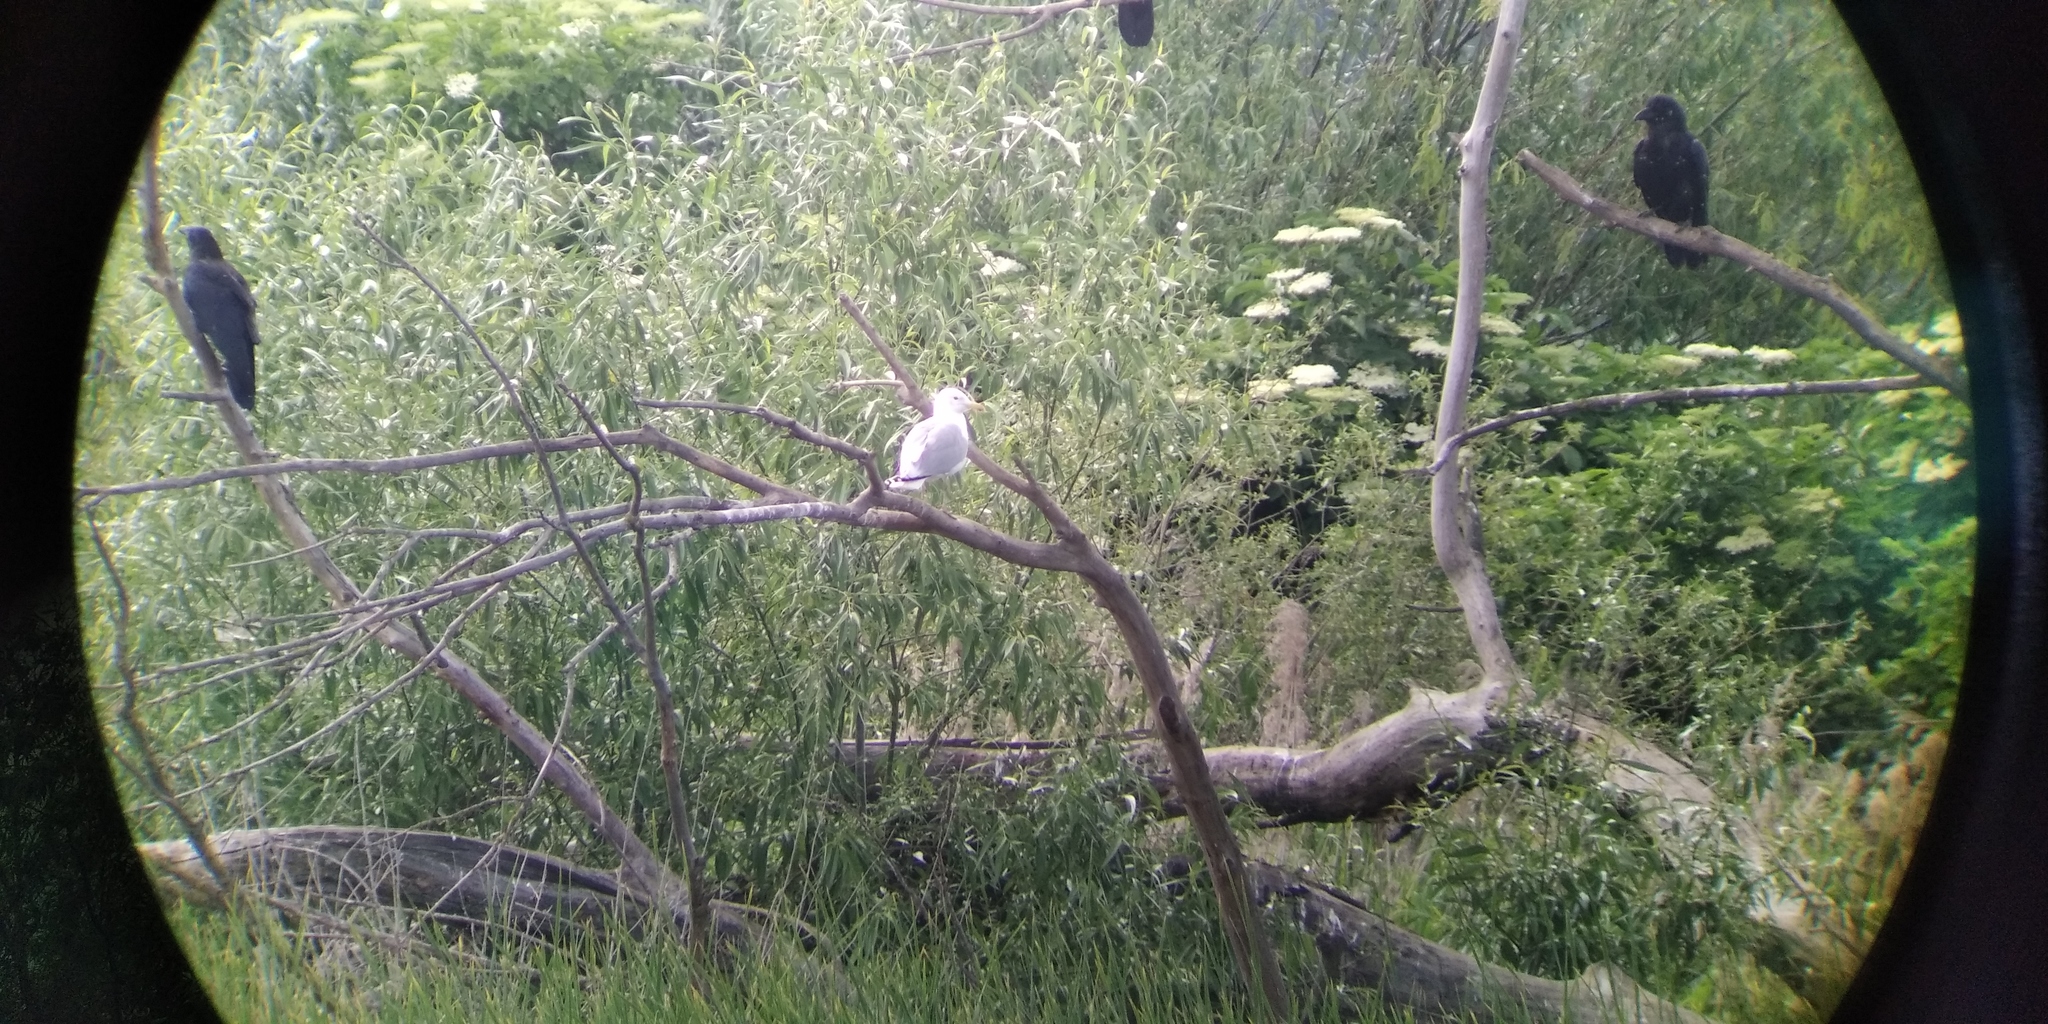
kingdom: Animalia
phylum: Chordata
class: Aves
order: Charadriiformes
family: Laridae
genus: Larus
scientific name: Larus cachinnans
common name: Caspian gull
